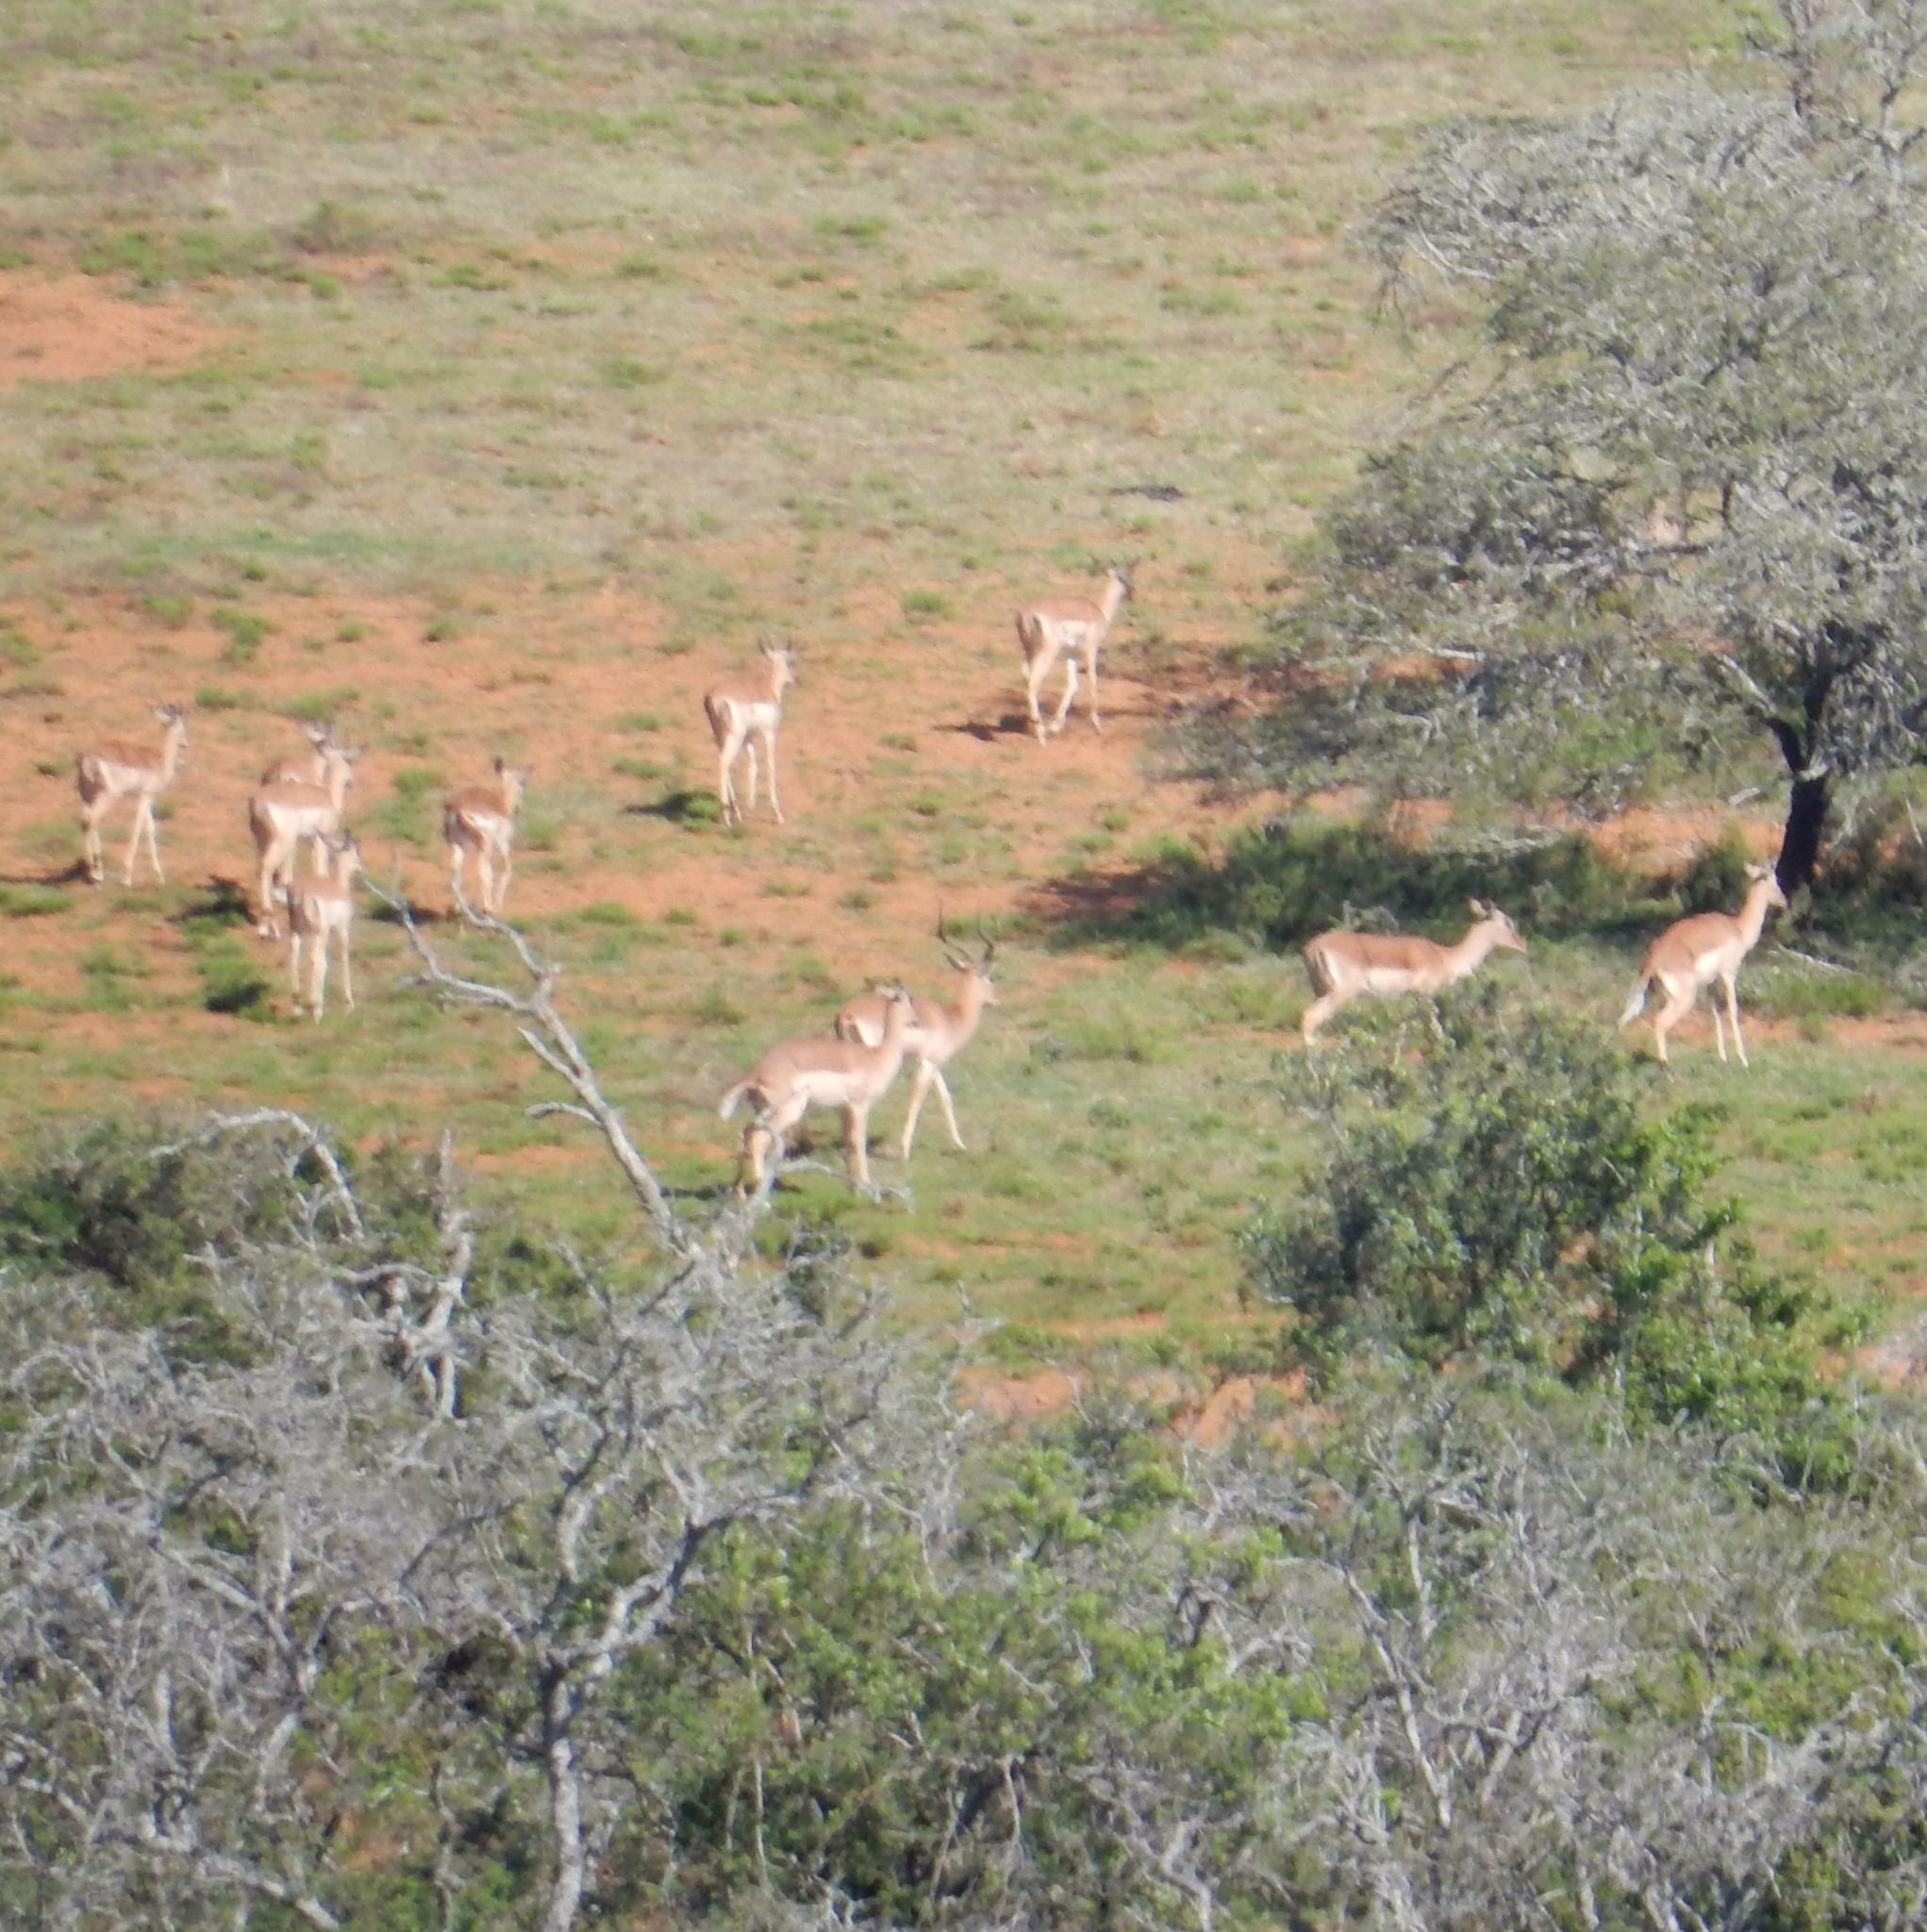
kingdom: Animalia
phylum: Chordata
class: Mammalia
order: Artiodactyla
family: Bovidae
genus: Aepyceros
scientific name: Aepyceros melampus
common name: Impala
